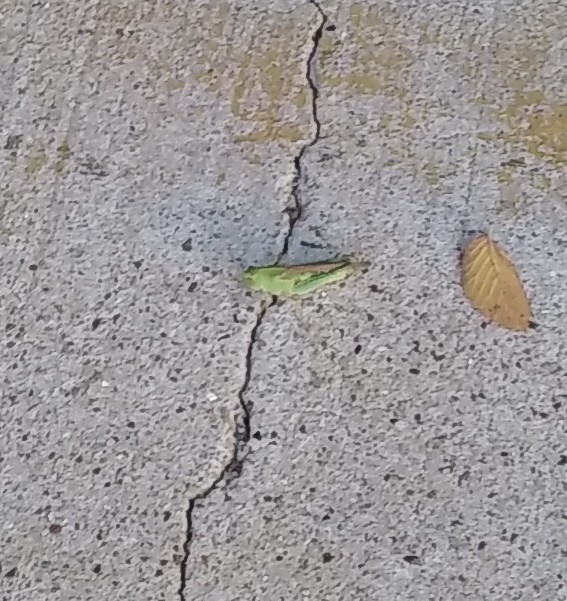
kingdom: Animalia
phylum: Arthropoda
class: Insecta
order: Orthoptera
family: Acrididae
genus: Chortophaga
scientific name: Chortophaga viridifasciata
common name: Green-striped grasshopper
